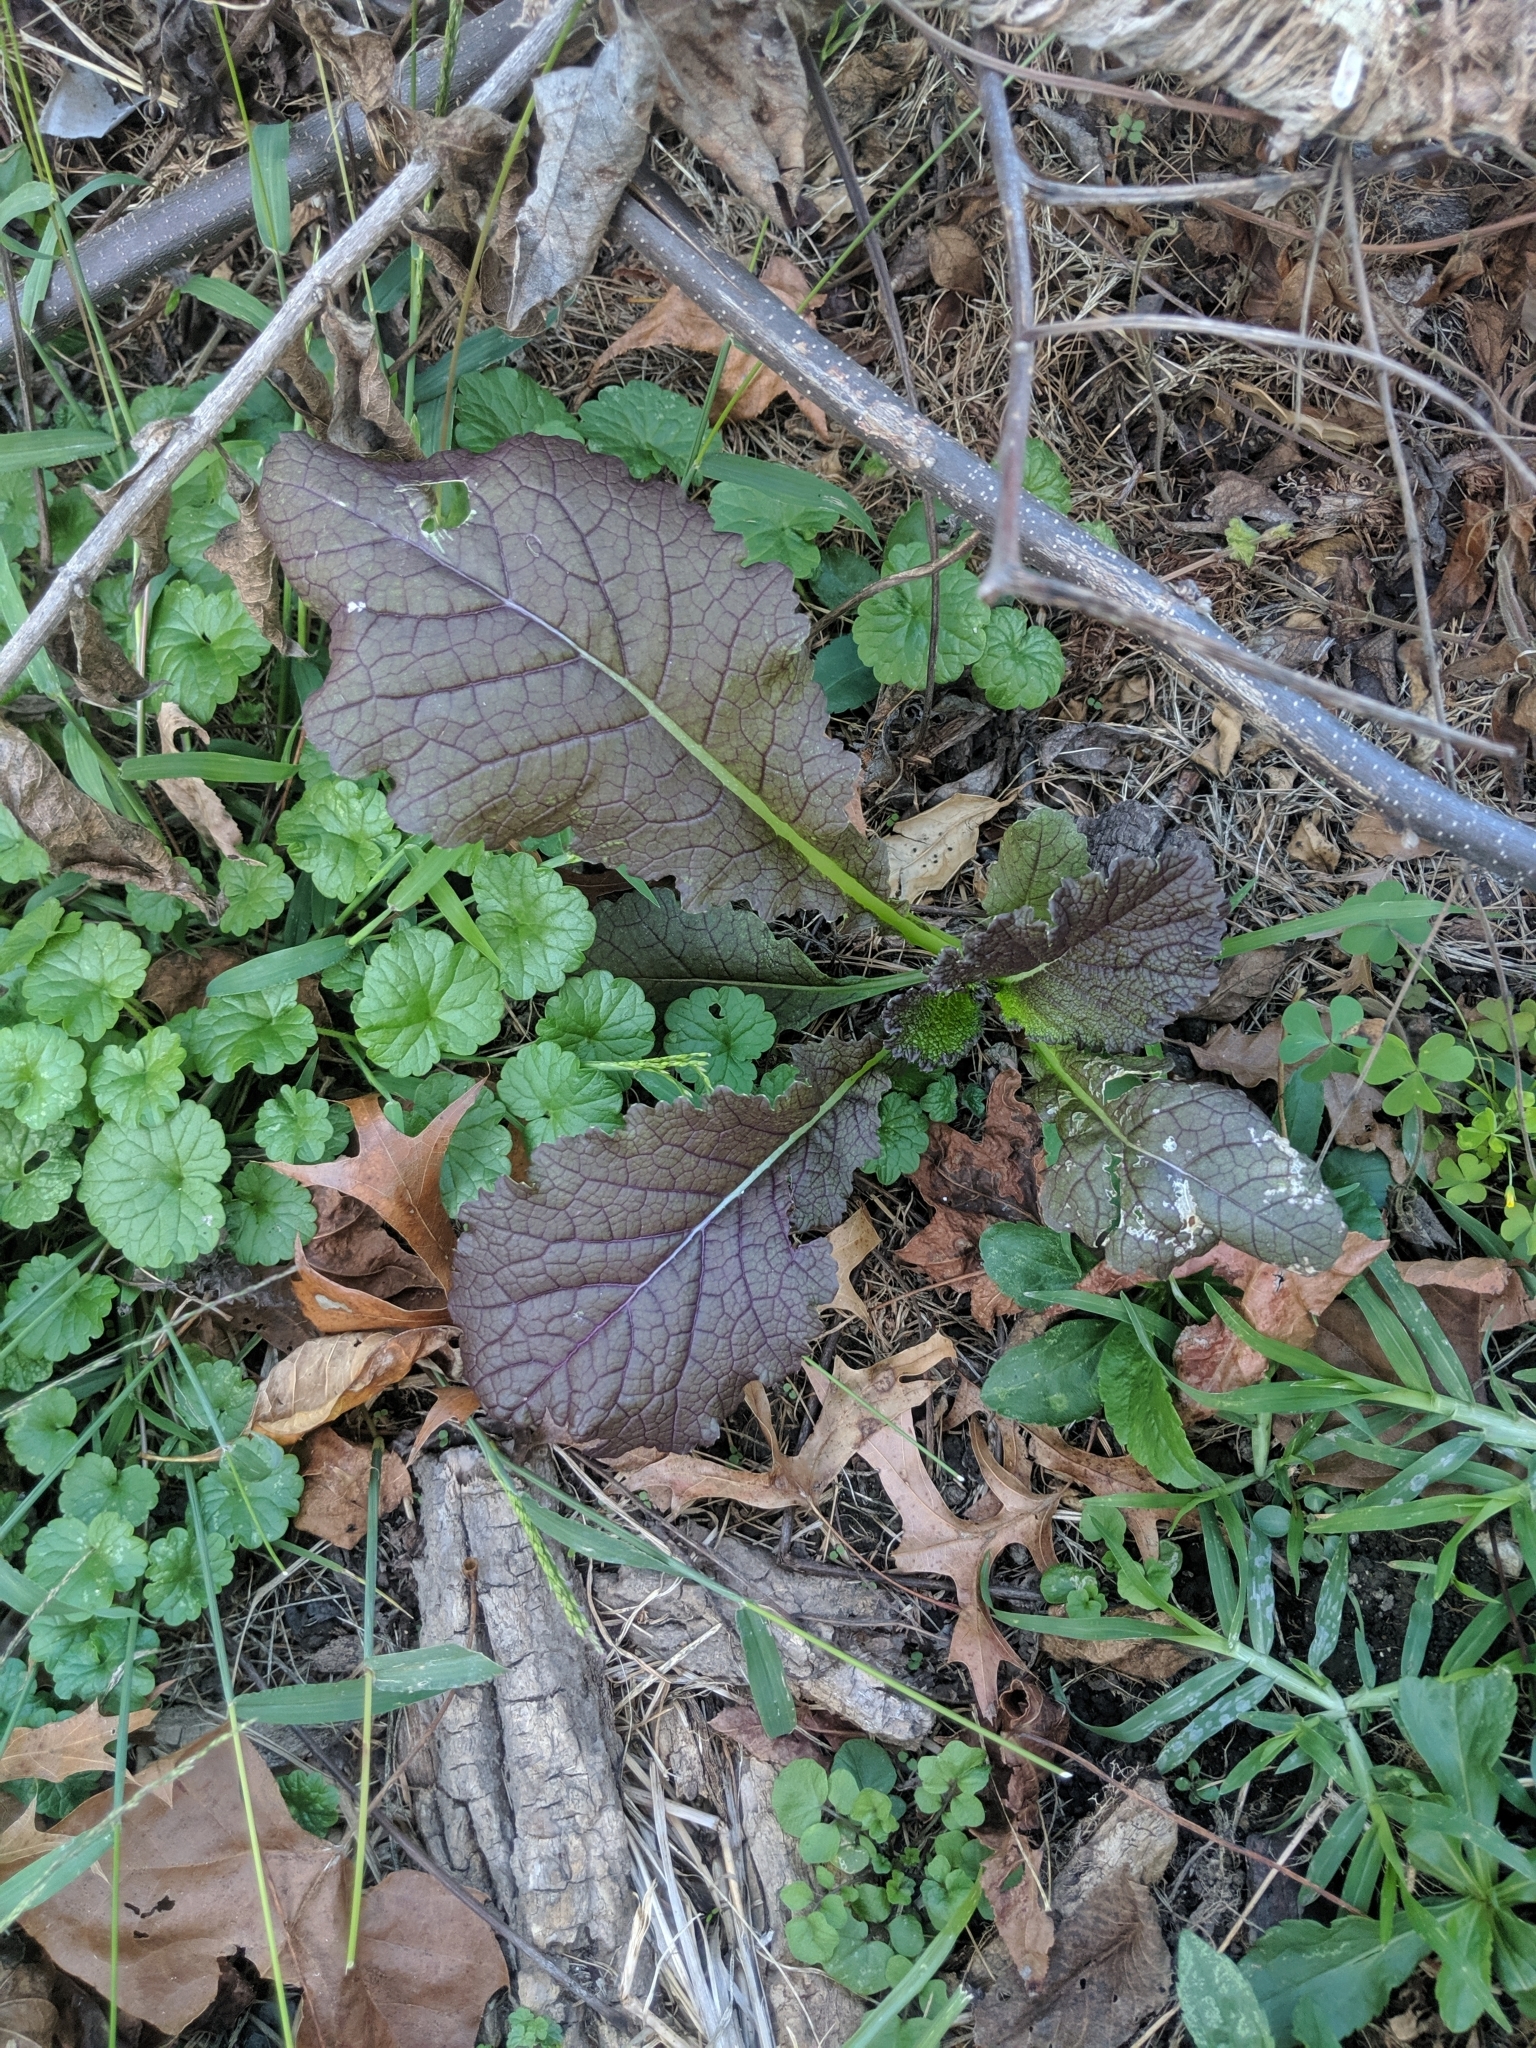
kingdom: Plantae
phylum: Tracheophyta
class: Magnoliopsida
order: Brassicales
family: Brassicaceae
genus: Brassica
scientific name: Brassica juncea
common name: Brown mustard
